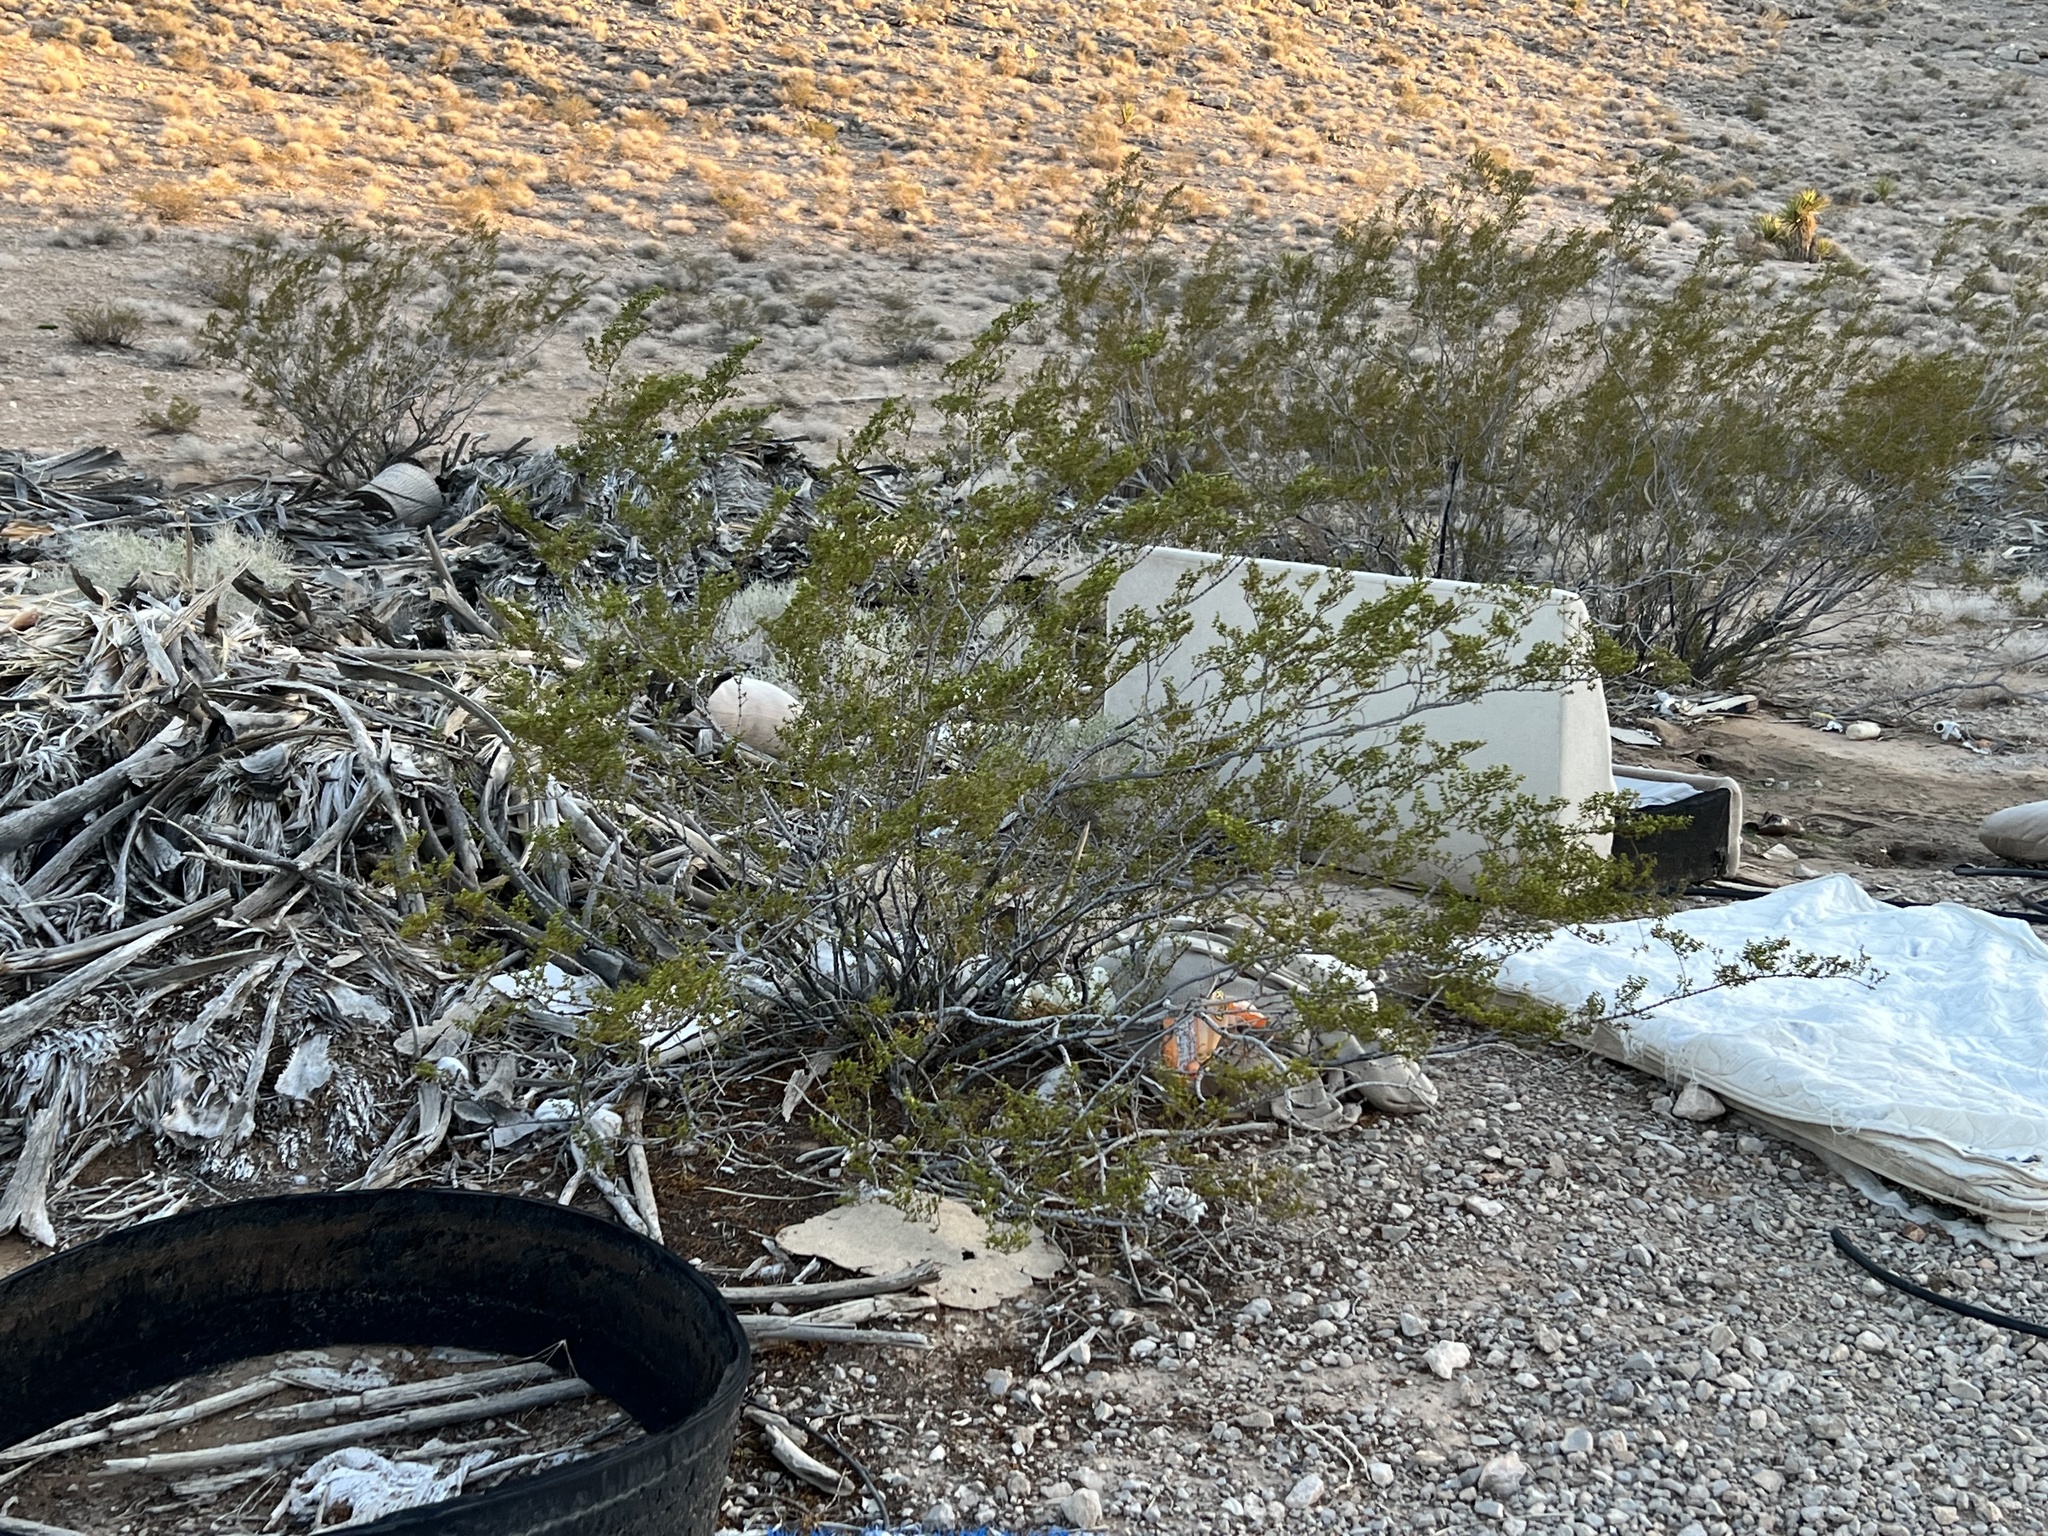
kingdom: Plantae
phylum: Tracheophyta
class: Magnoliopsida
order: Zygophyllales
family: Zygophyllaceae
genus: Larrea
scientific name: Larrea tridentata
